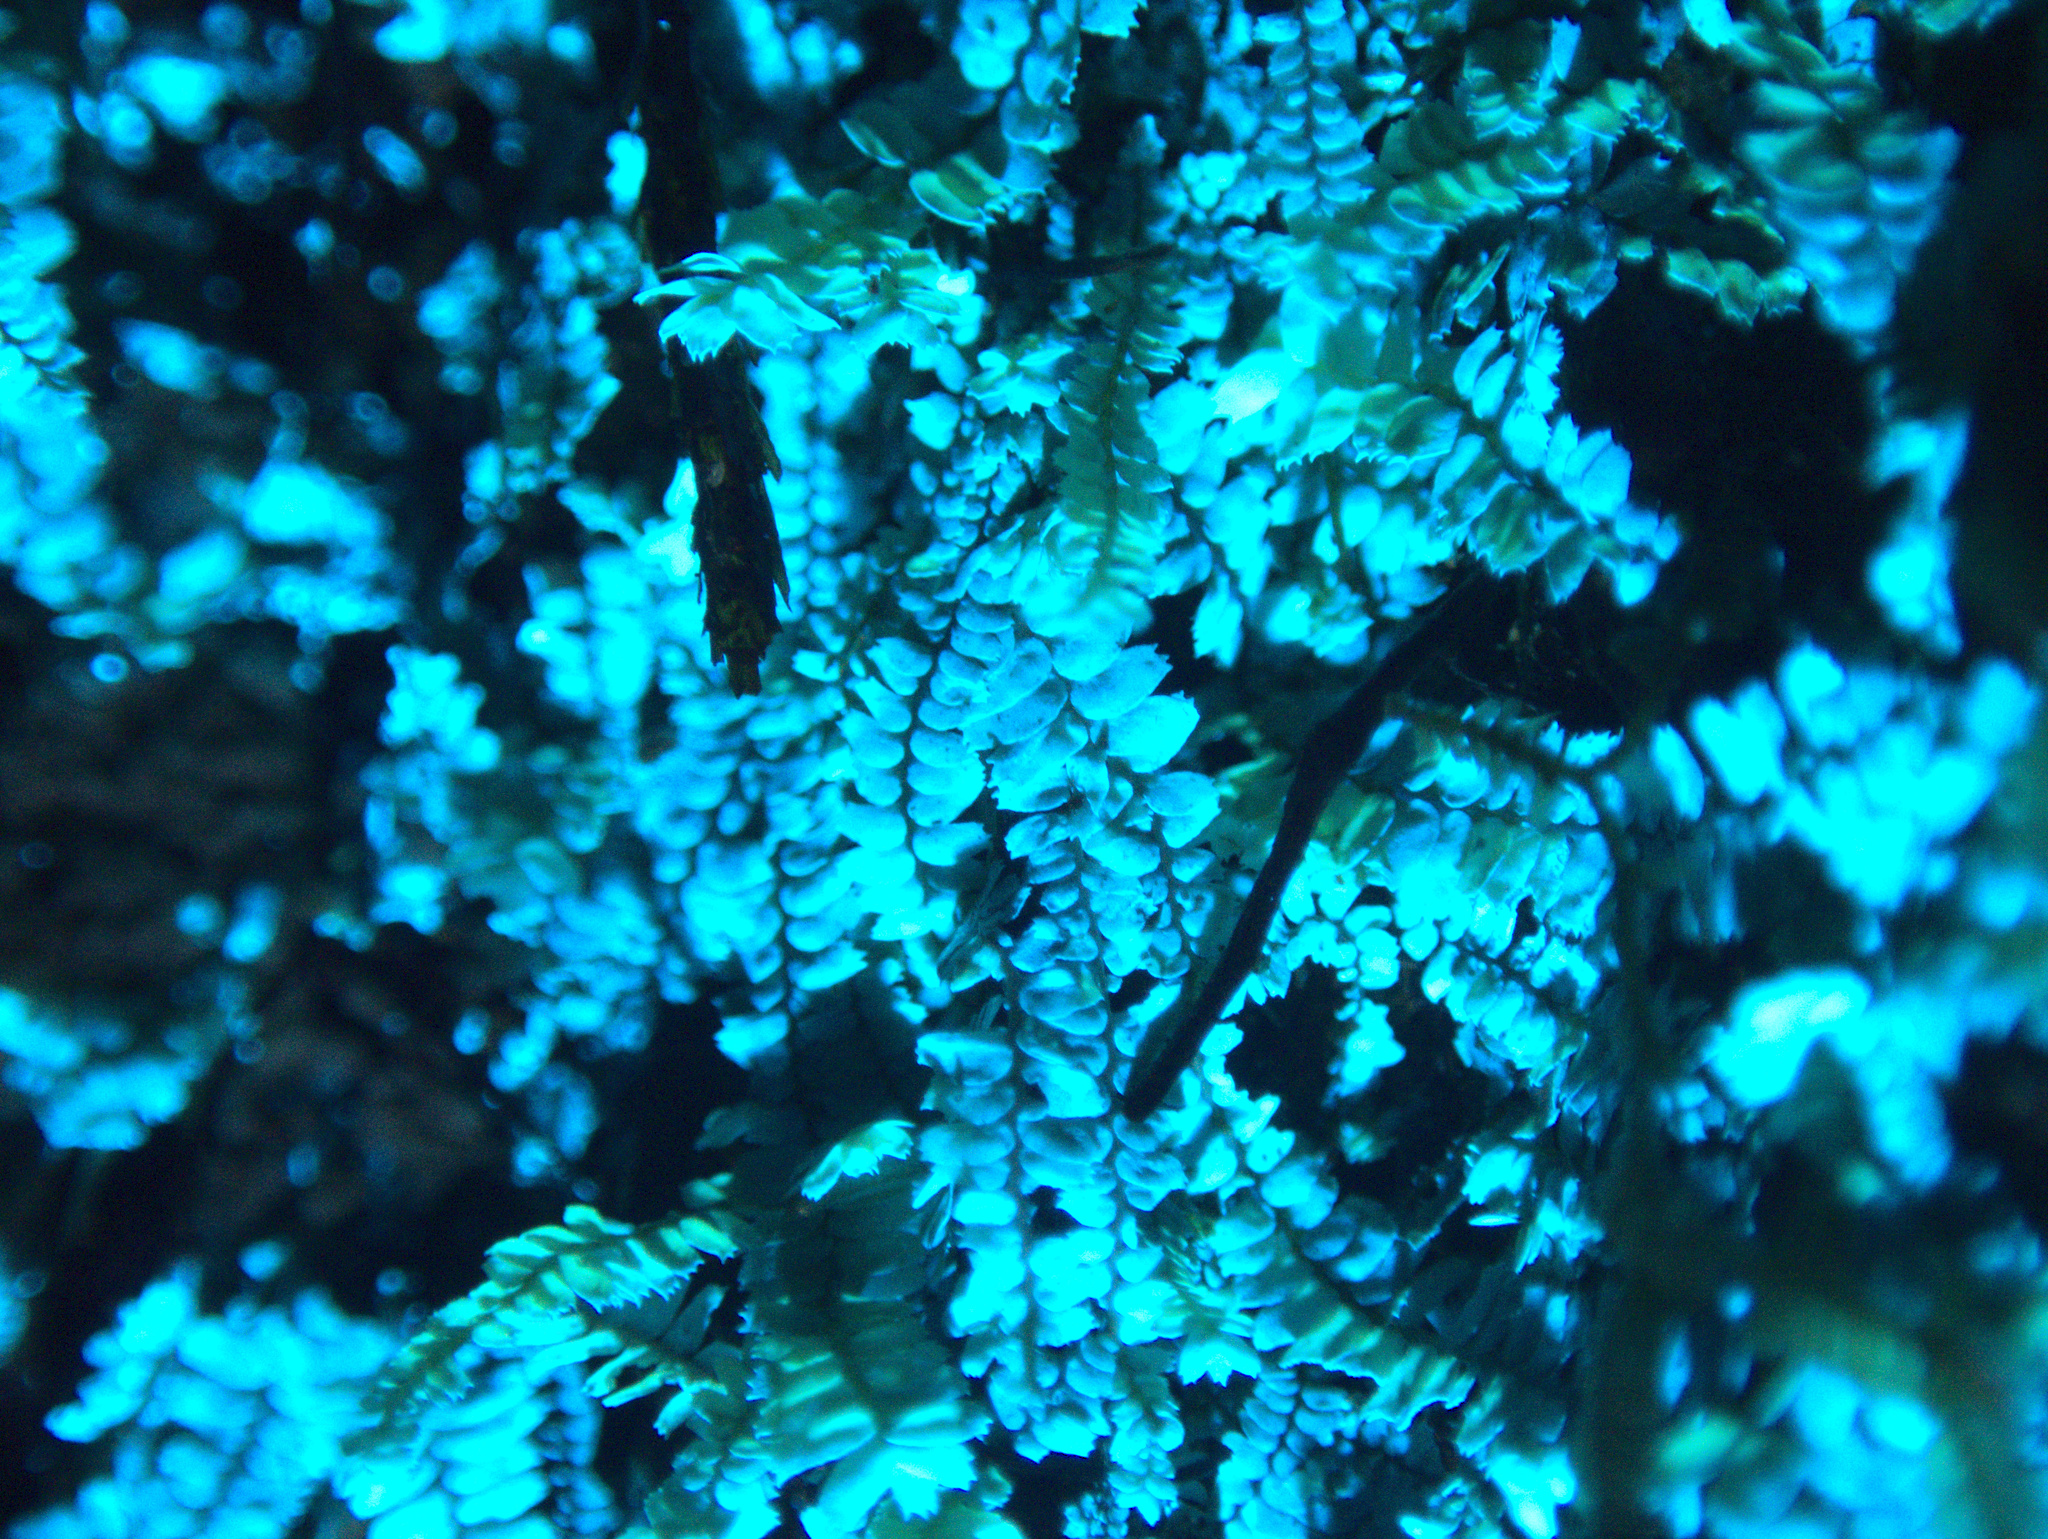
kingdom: Plantae
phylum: Marchantiophyta
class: Jungermanniopsida
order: Jungermanniales
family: Lepidoziaceae
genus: Bazzania
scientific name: Bazzania tayloriana
